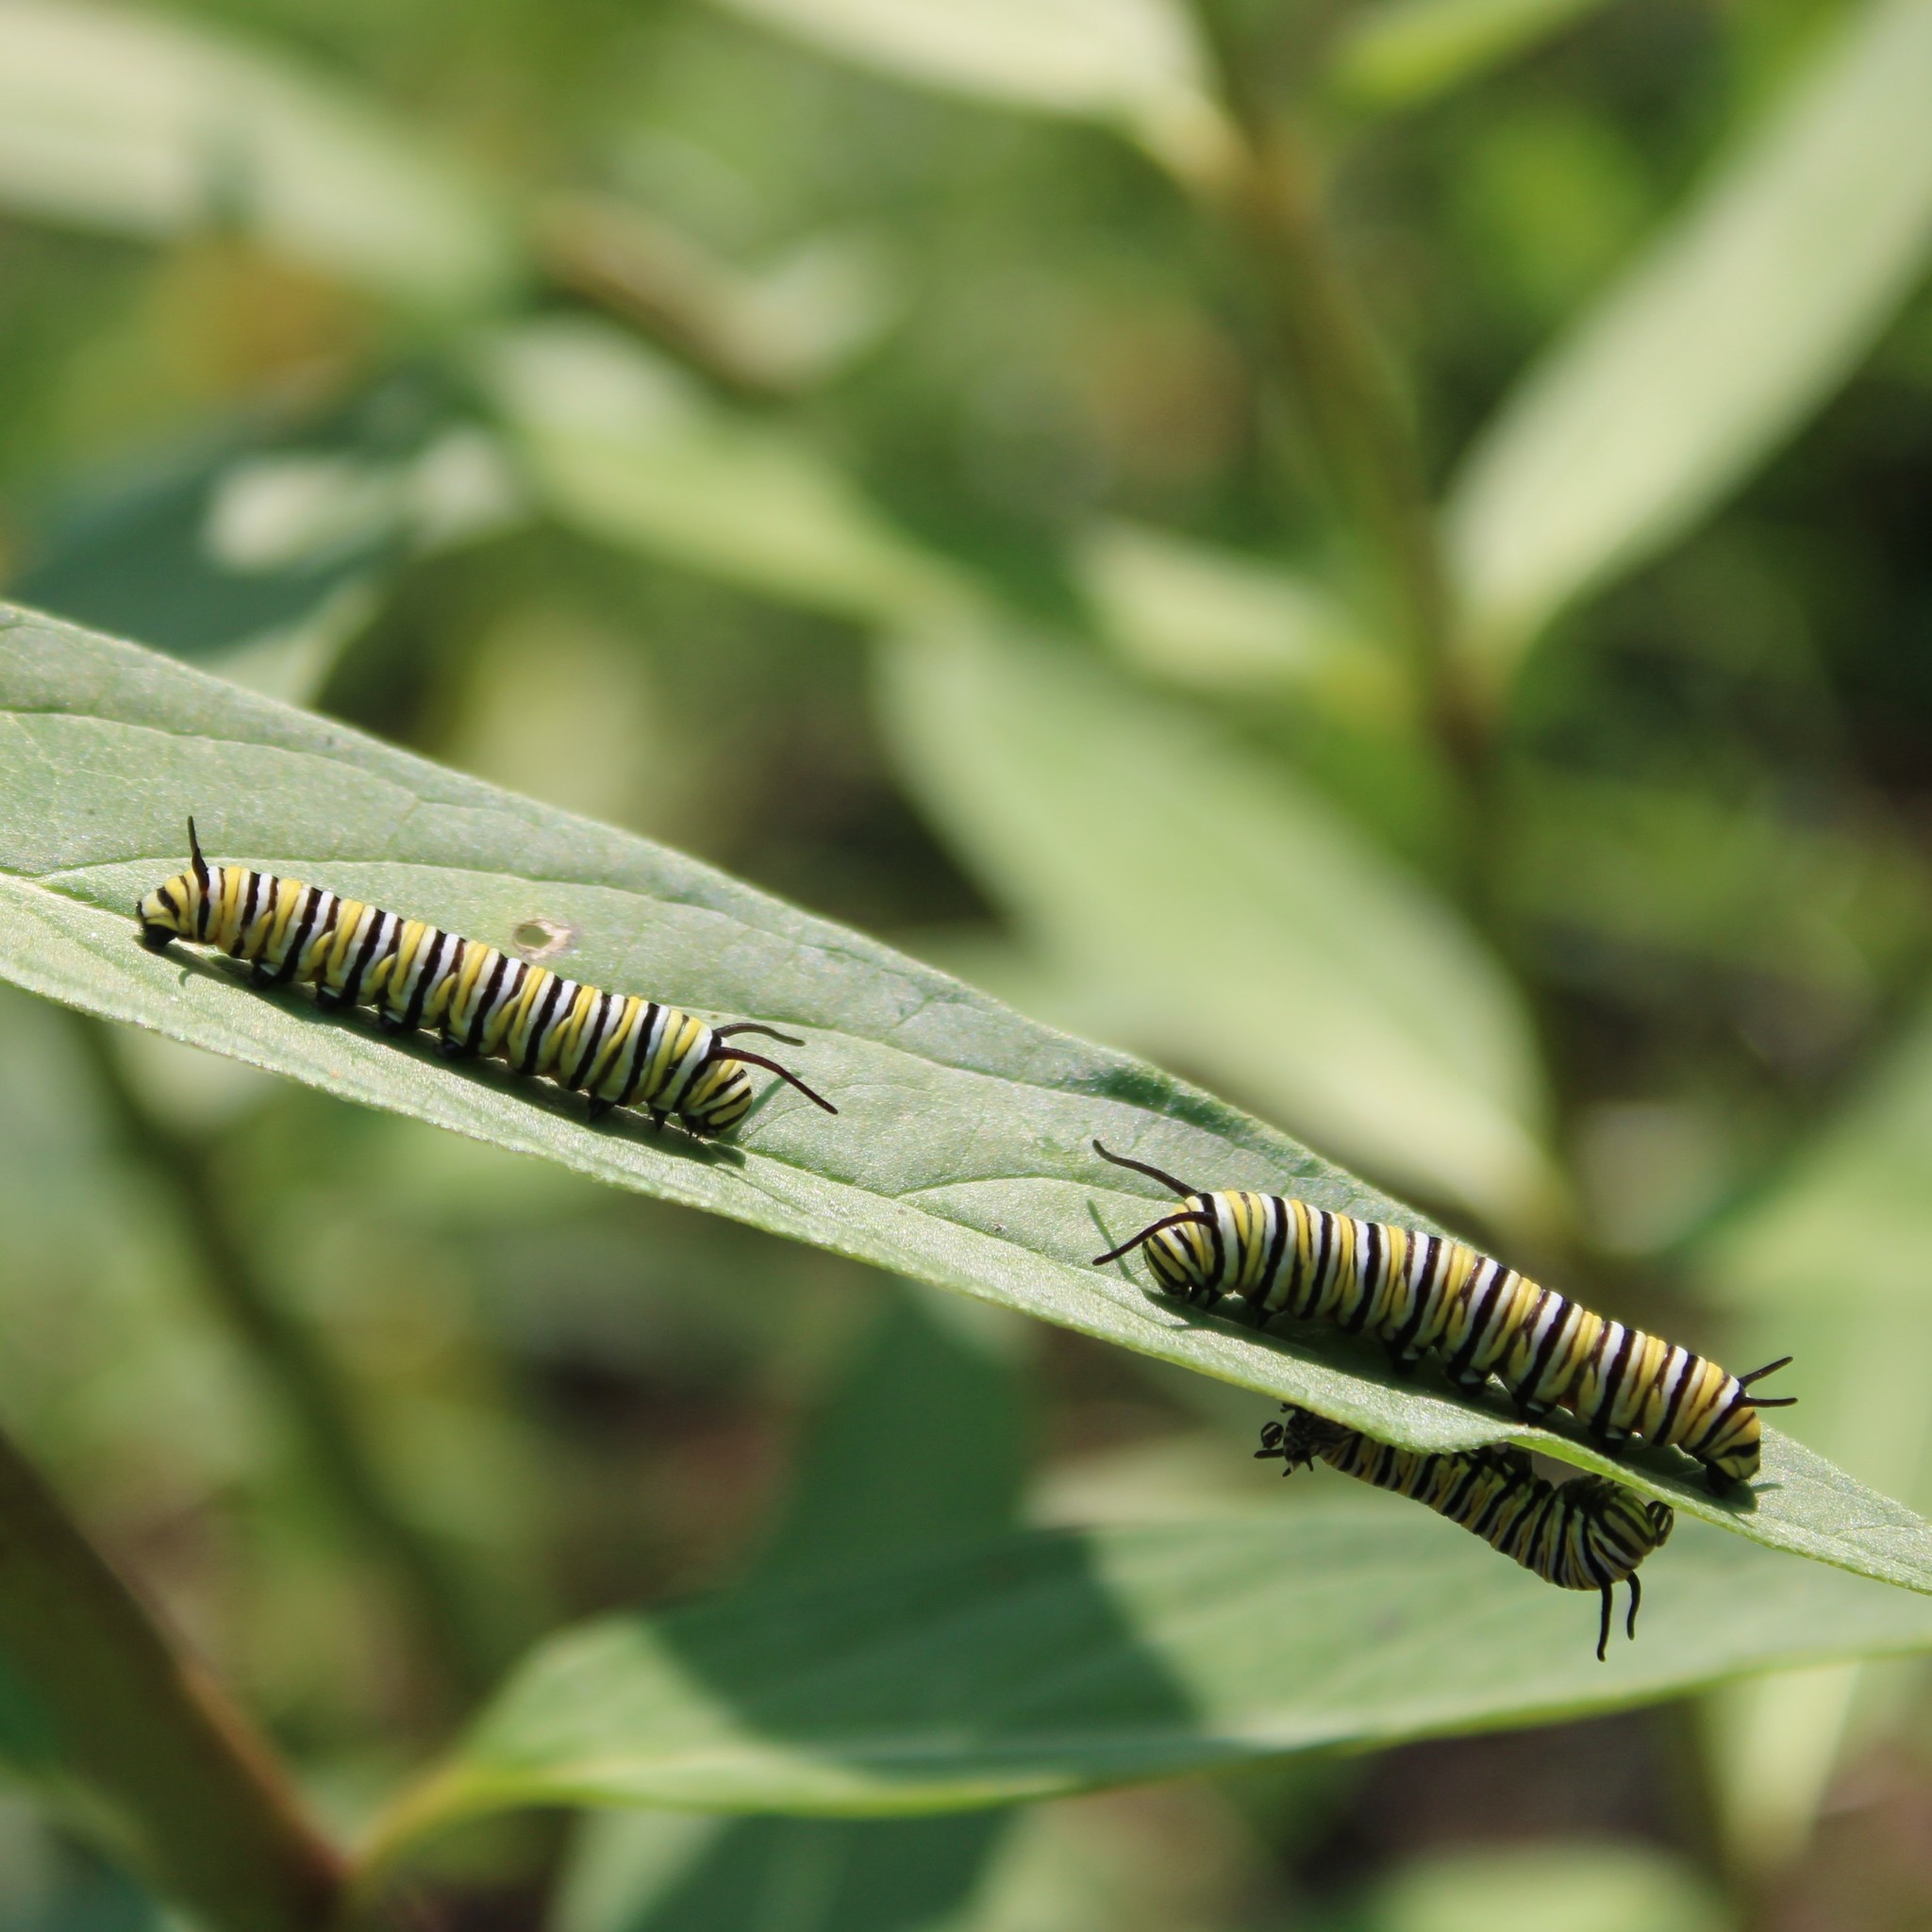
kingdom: Animalia
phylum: Arthropoda
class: Insecta
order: Lepidoptera
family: Nymphalidae
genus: Danaus
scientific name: Danaus plexippus
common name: Monarch
